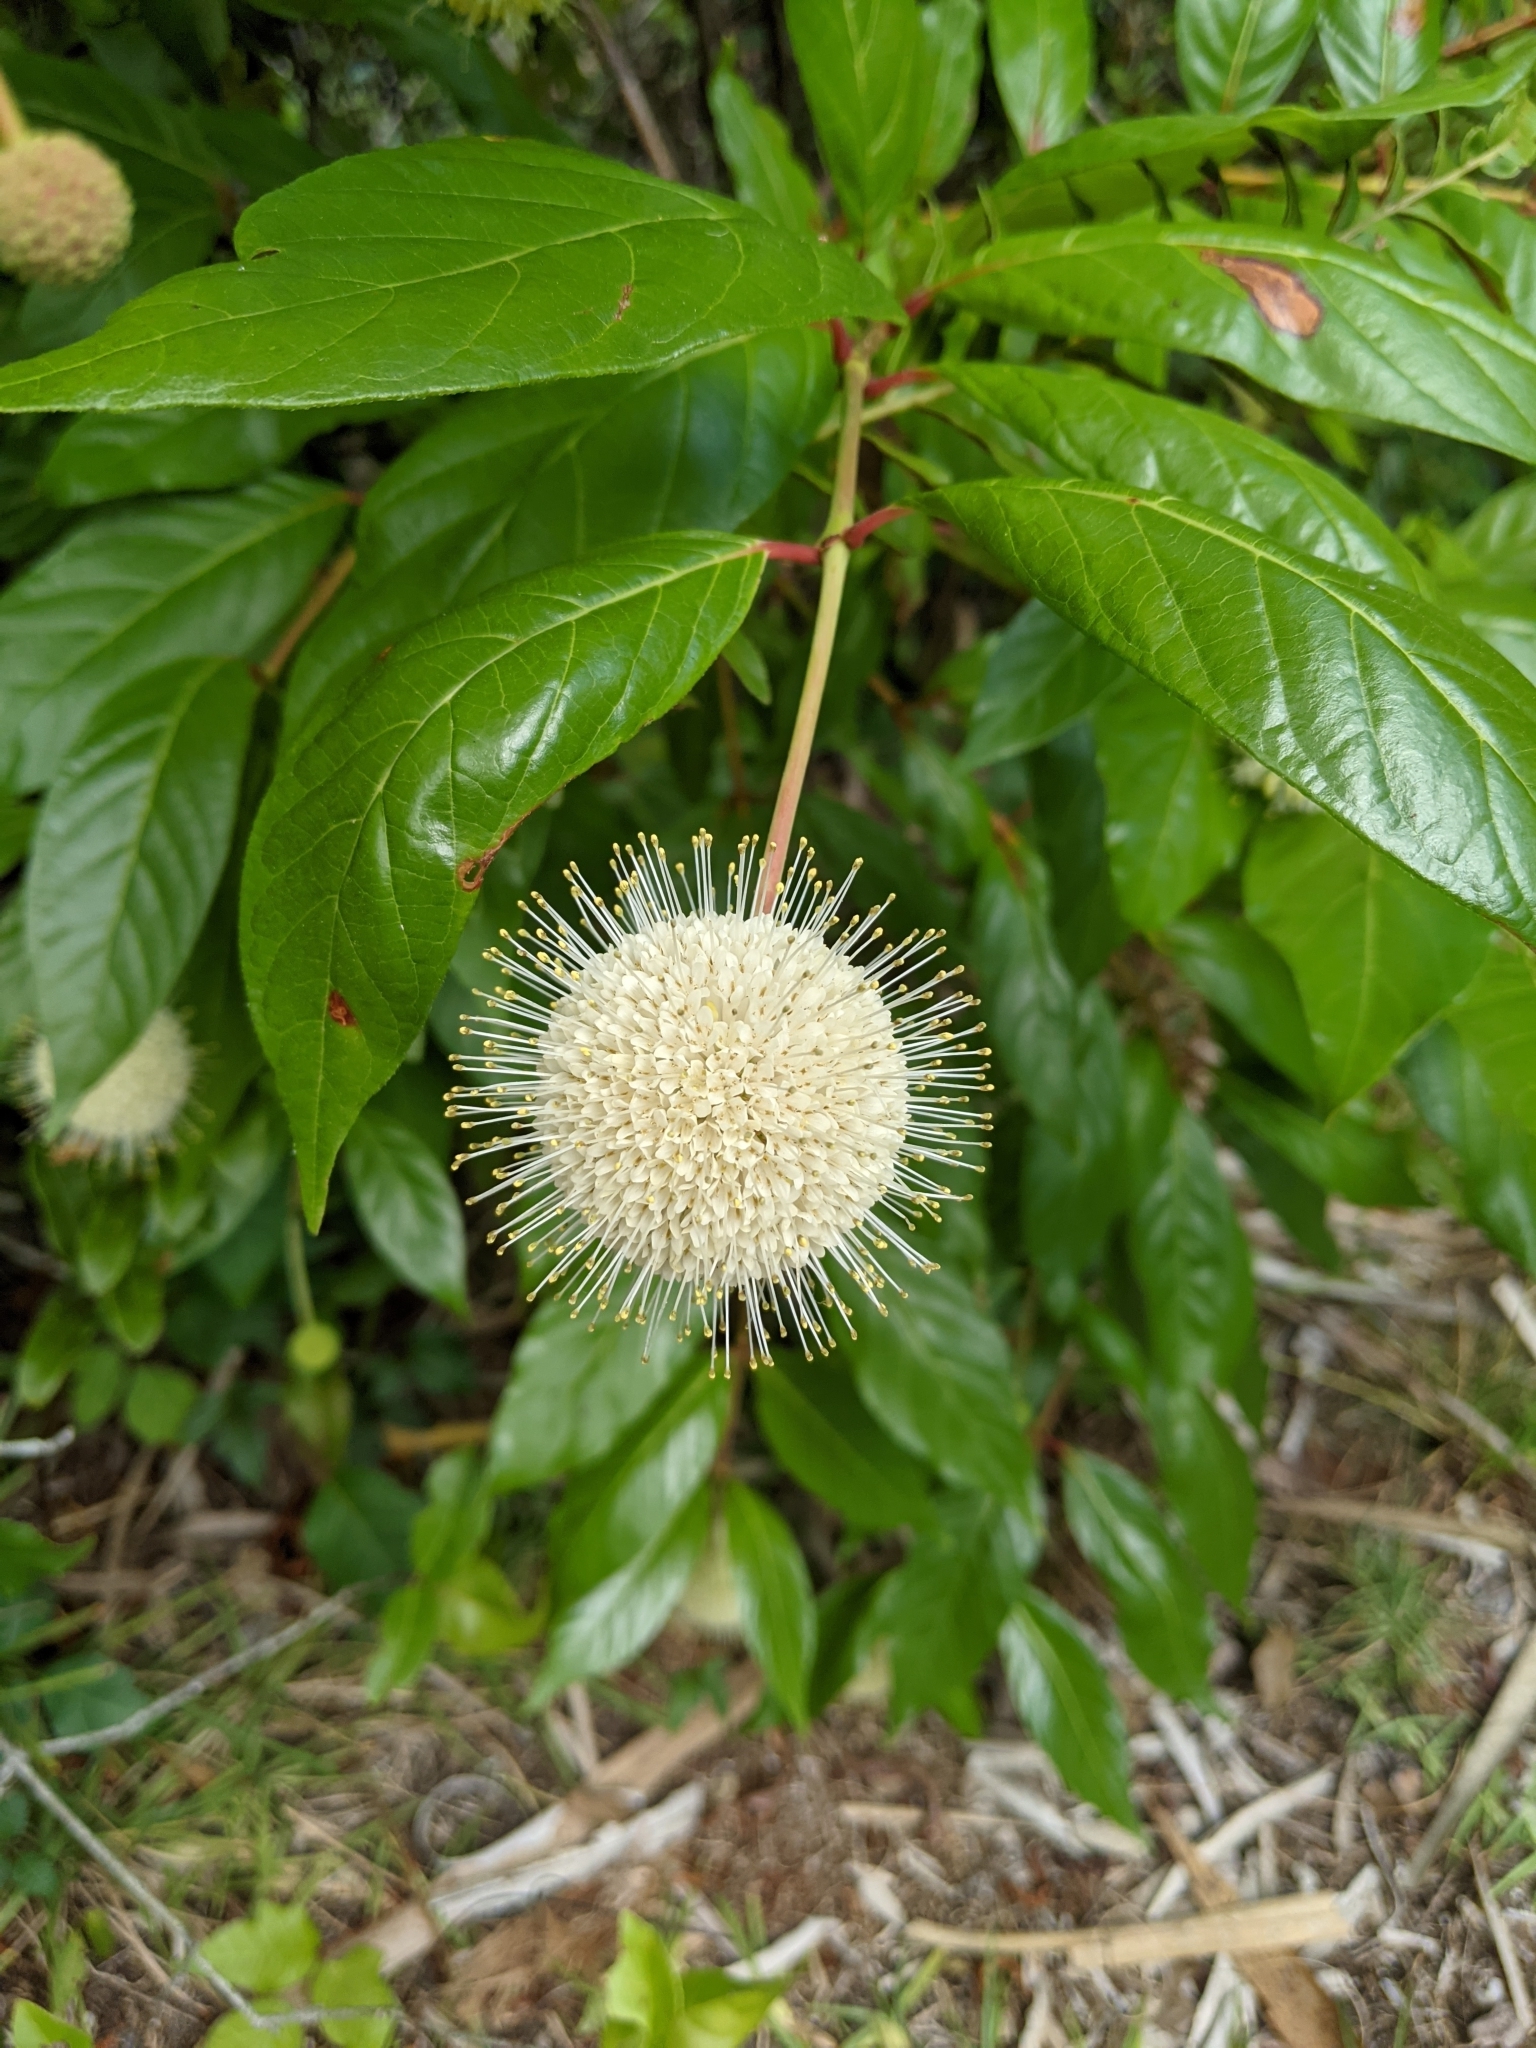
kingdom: Plantae
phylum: Tracheophyta
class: Magnoliopsida
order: Gentianales
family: Rubiaceae
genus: Cephalanthus
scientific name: Cephalanthus occidentalis
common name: Button-willow
